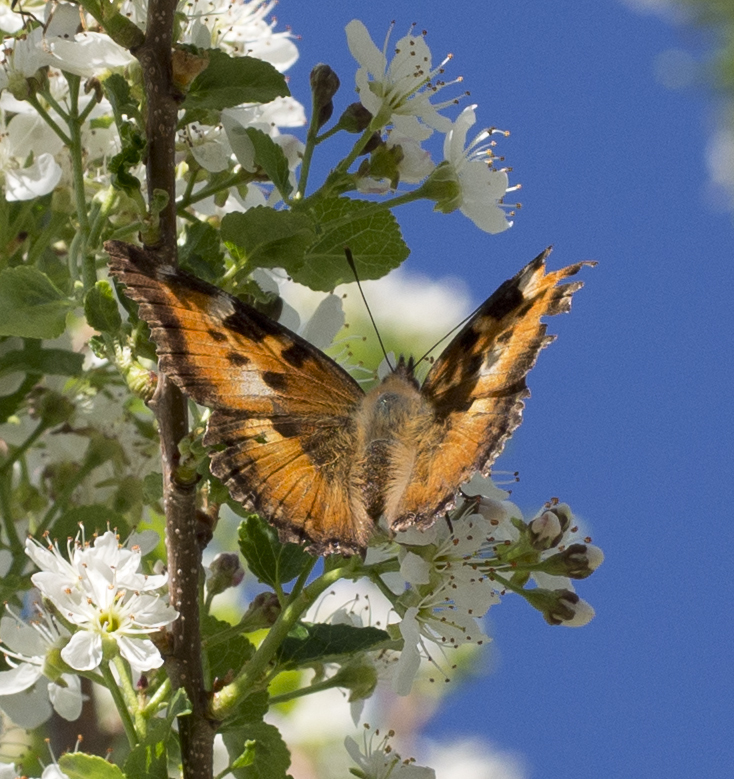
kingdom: Animalia
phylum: Arthropoda
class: Insecta
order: Lepidoptera
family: Nymphalidae
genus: Nymphalis
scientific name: Nymphalis californica
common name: California tortoiseshell
